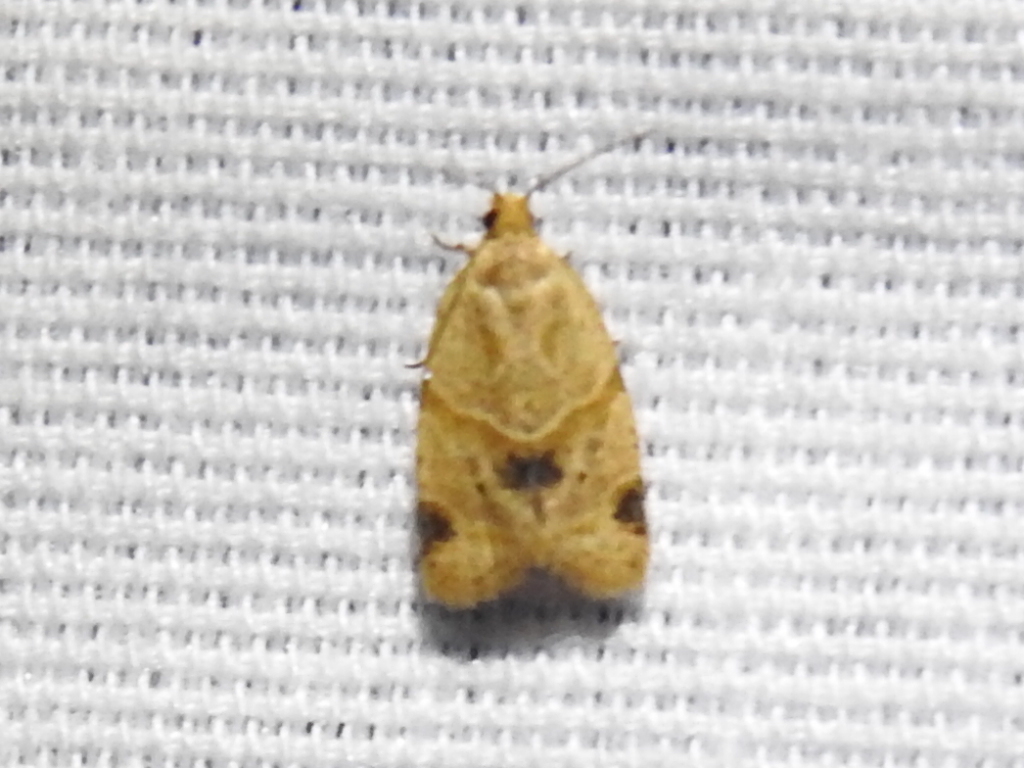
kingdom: Animalia
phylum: Arthropoda
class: Insecta
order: Lepidoptera
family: Tortricidae
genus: Clepsis
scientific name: Clepsis peritana
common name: Garden tortrix
